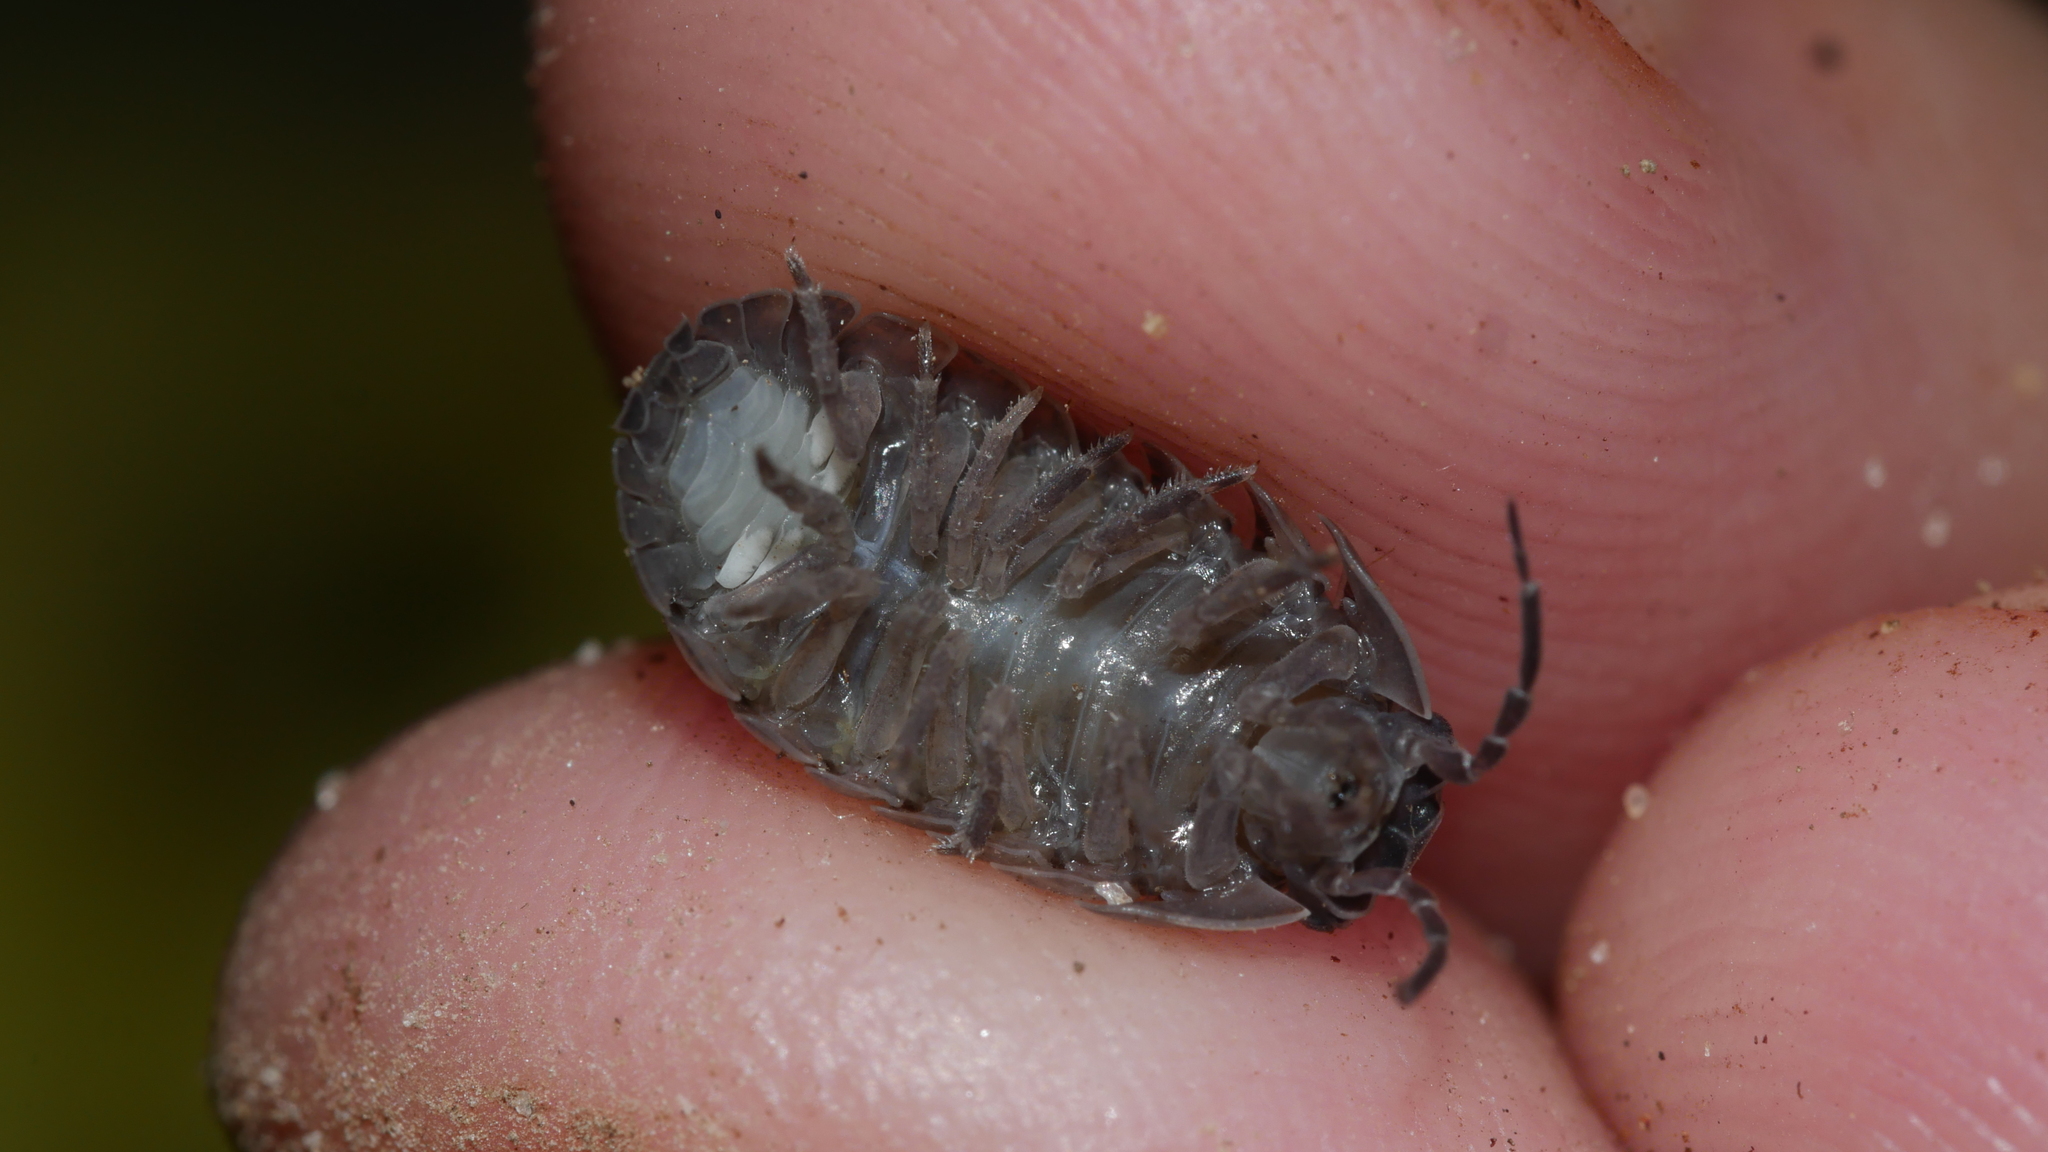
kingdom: Animalia
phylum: Arthropoda
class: Malacostraca
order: Isopoda
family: Armadillidiidae
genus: Armadillidium
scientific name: Armadillidium vulgare
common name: Common pill woodlouse
